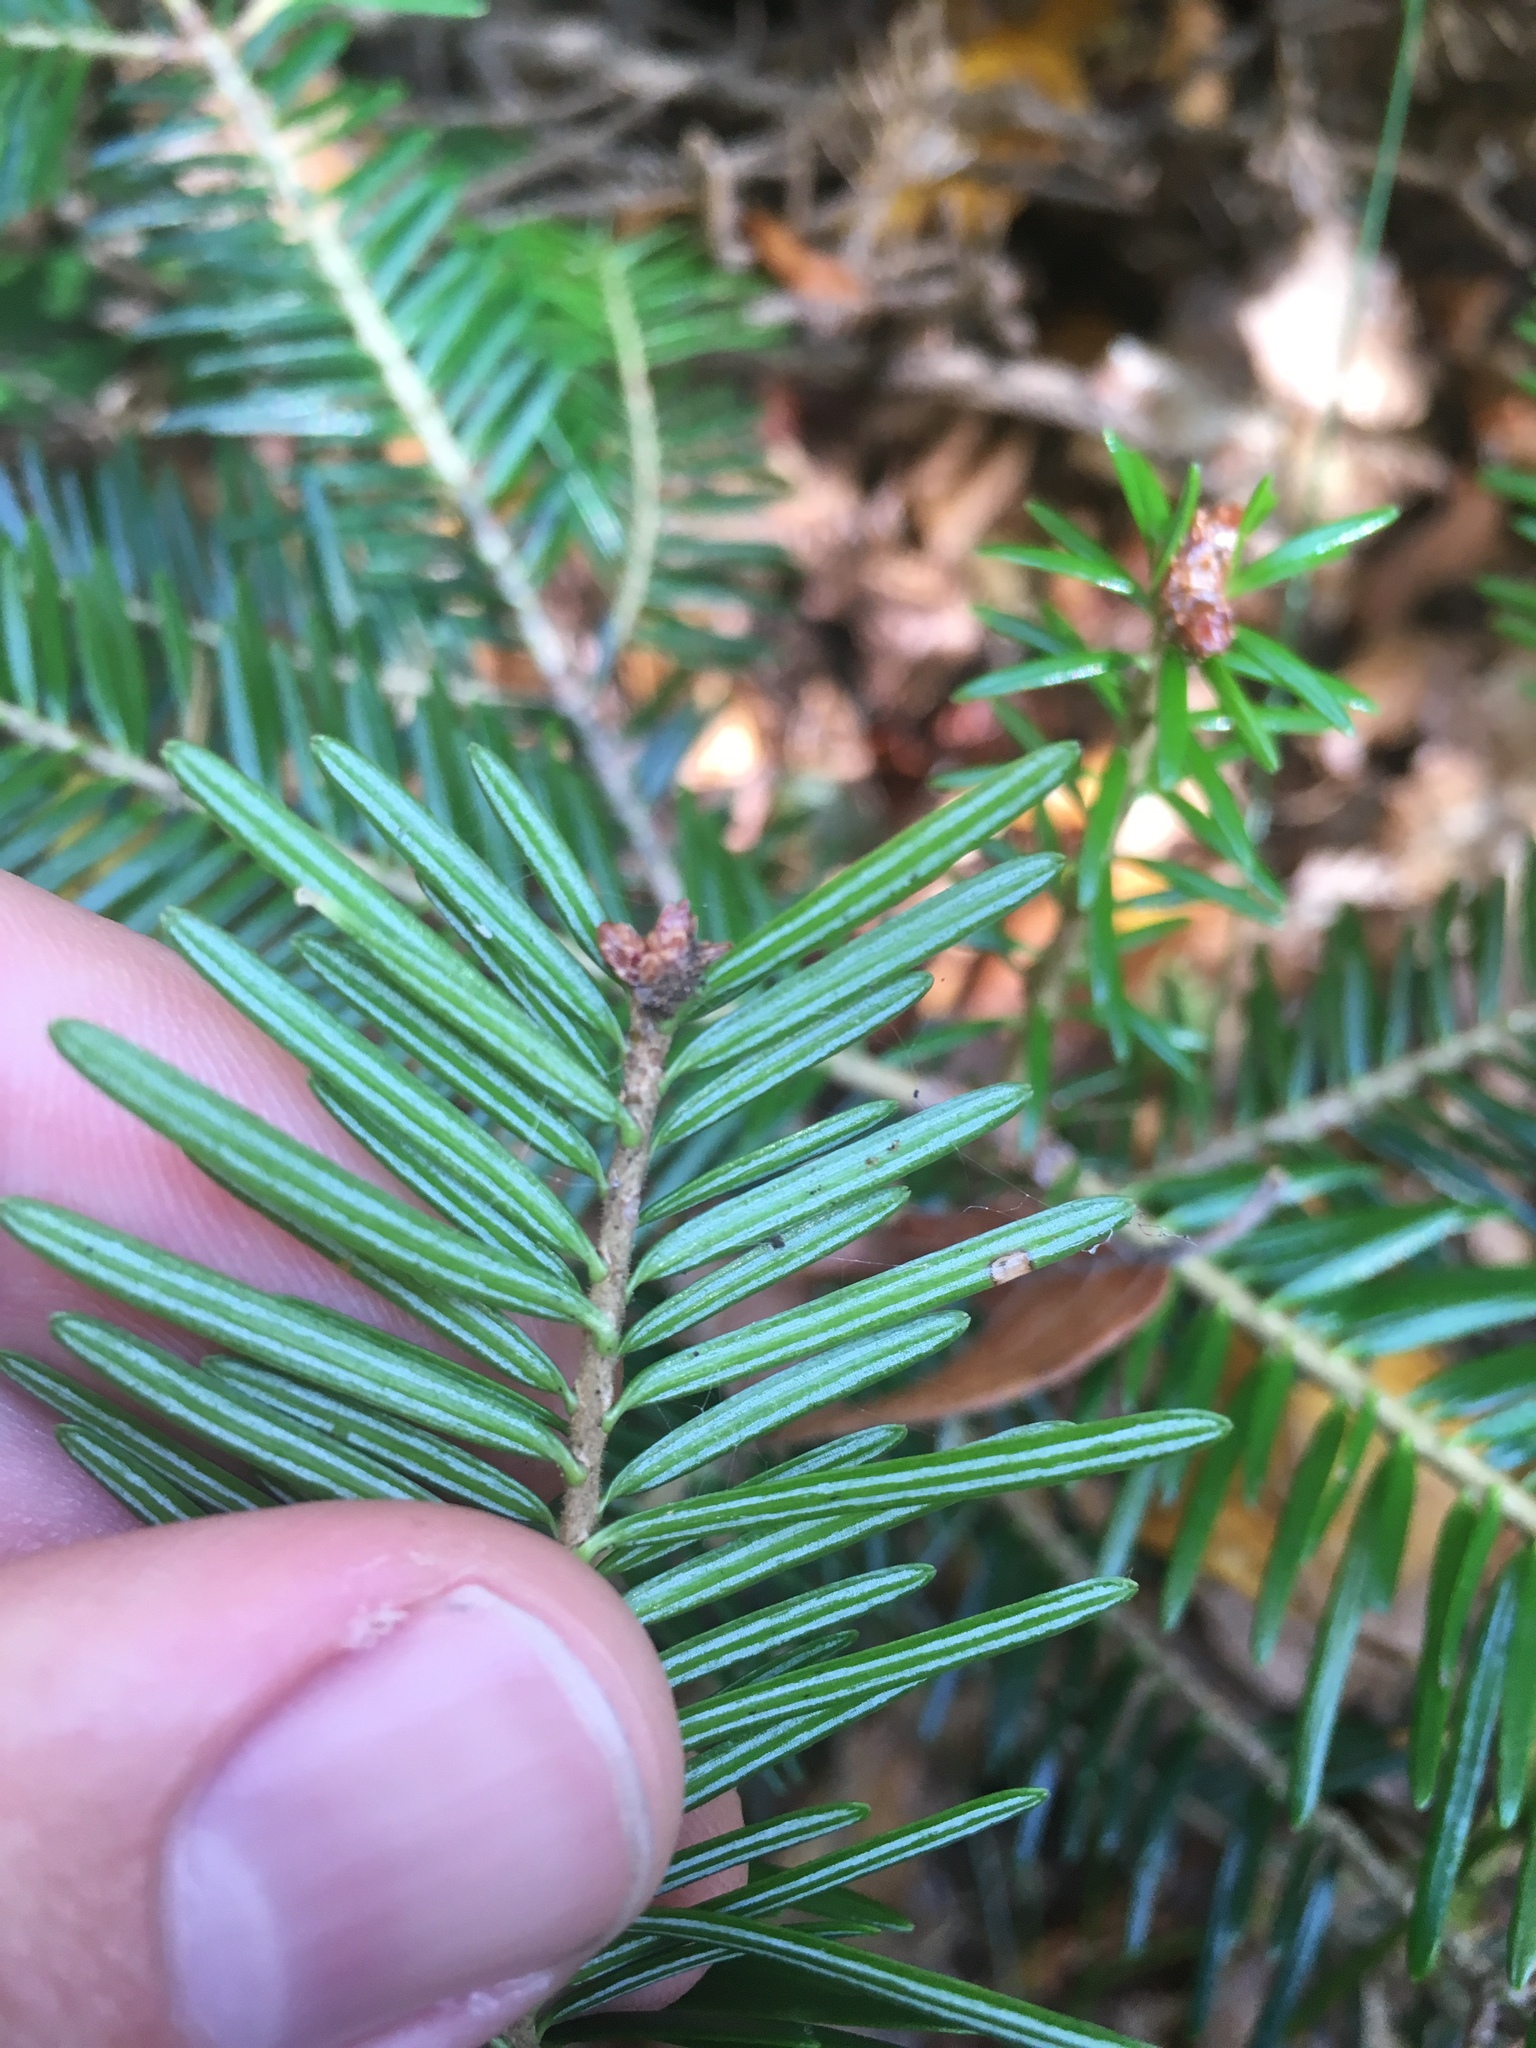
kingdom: Plantae
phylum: Tracheophyta
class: Pinopsida
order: Pinales
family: Pinaceae
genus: Abies
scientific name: Abies alba
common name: Silver fir
